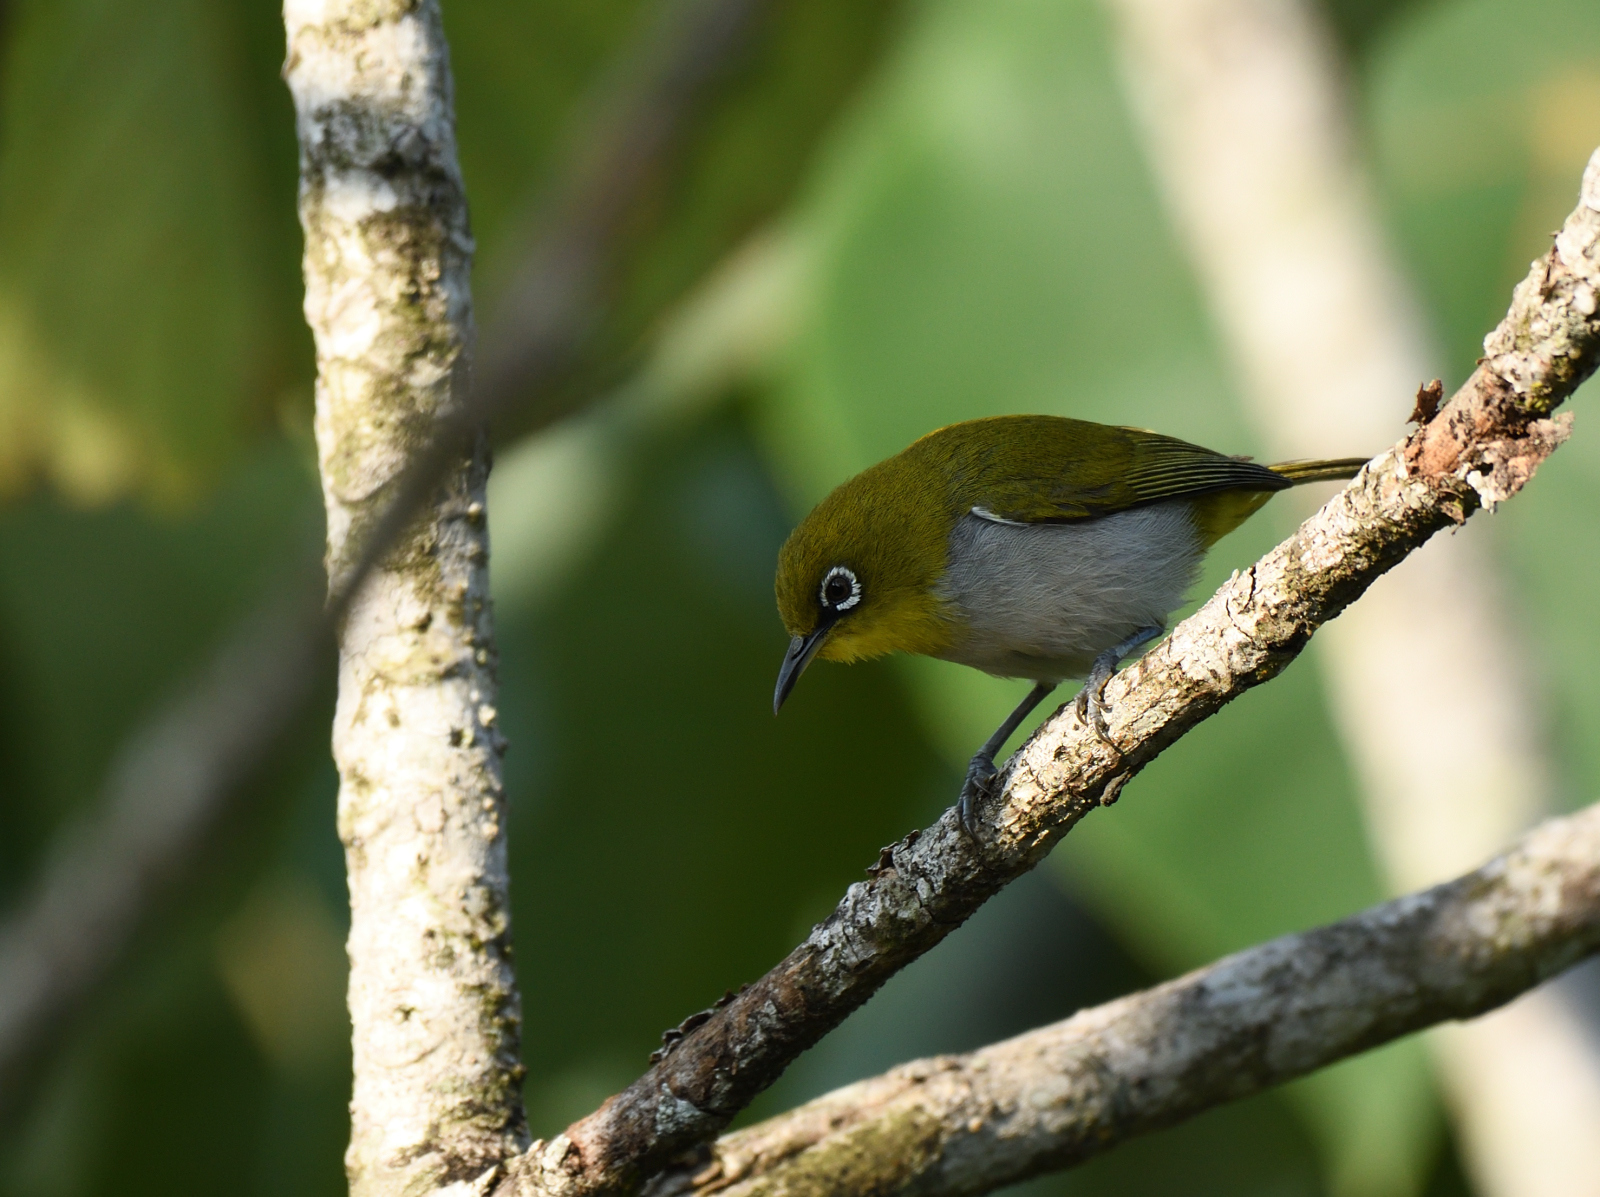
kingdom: Animalia
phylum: Chordata
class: Aves
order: Passeriformes
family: Zosteropidae
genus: Zosterops
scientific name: Zosterops palpebrosus
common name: Oriental white-eye
